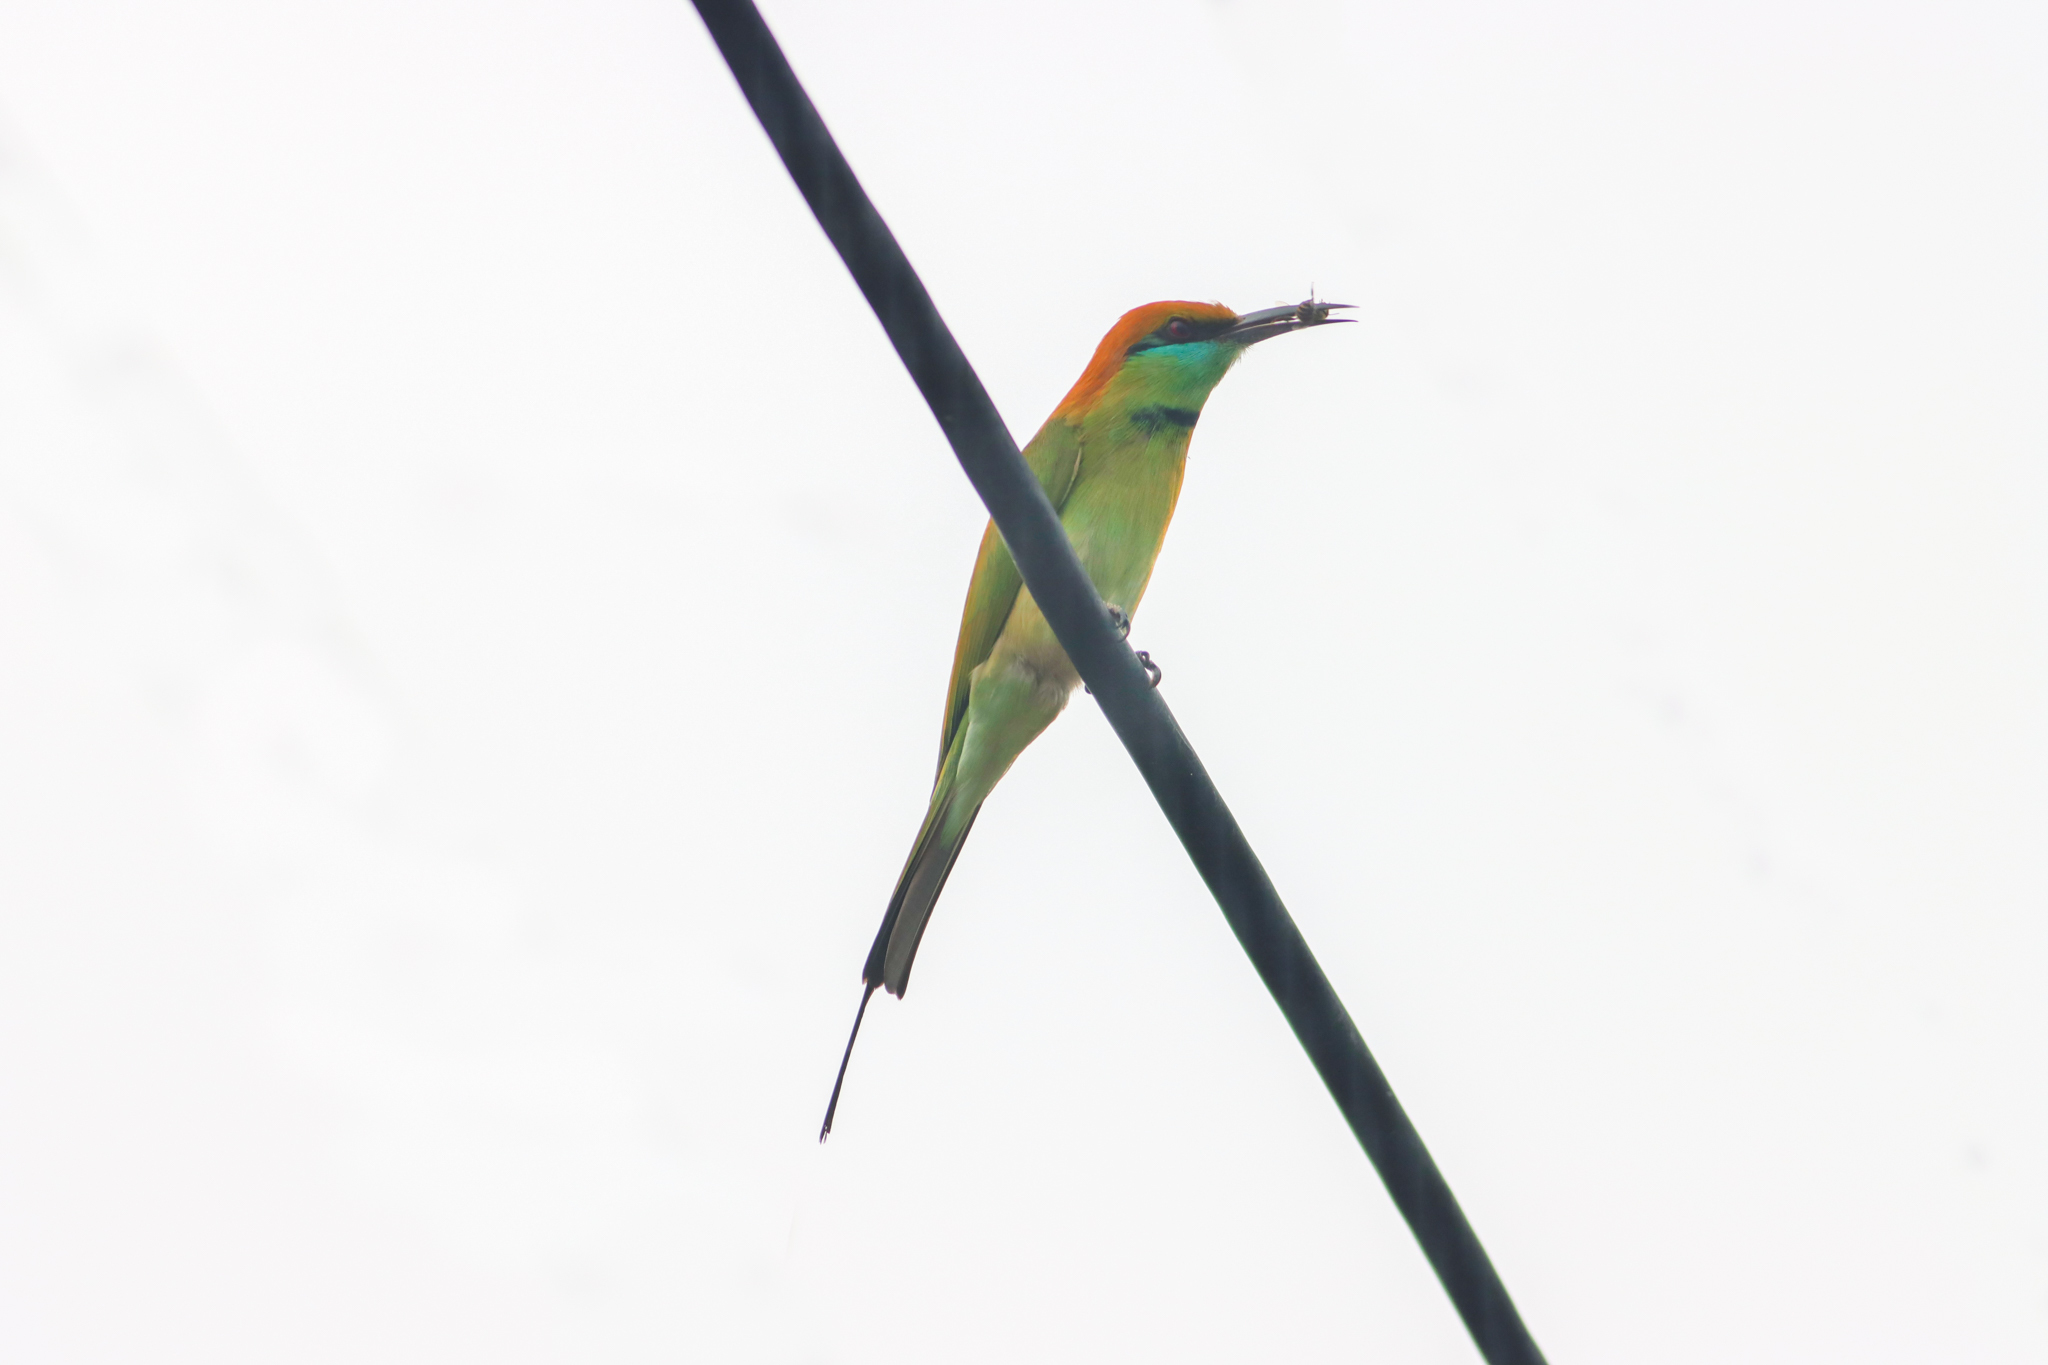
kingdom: Animalia
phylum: Chordata
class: Aves
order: Coraciiformes
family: Meropidae
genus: Merops
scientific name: Merops orientalis
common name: Green bee-eater
